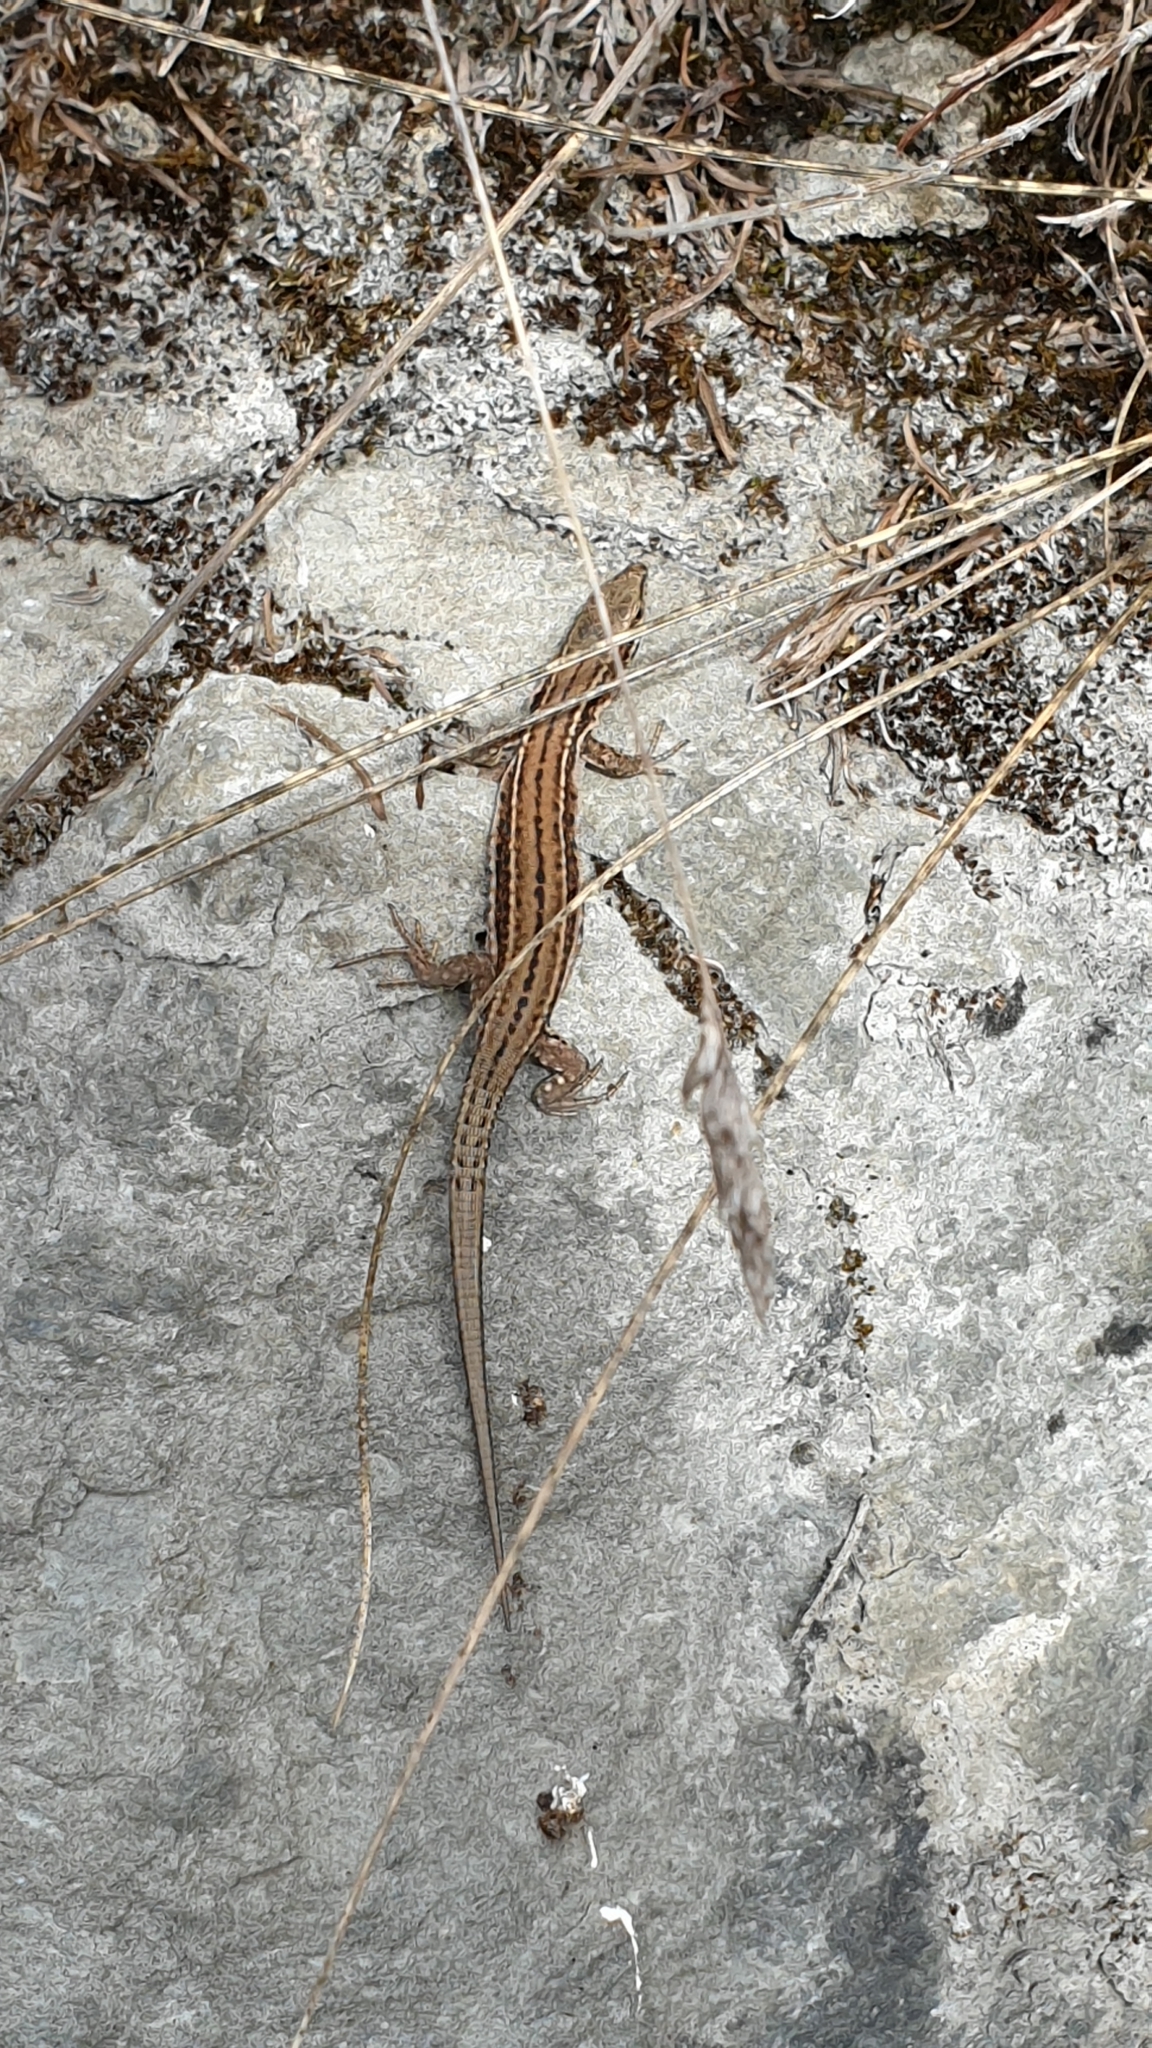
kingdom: Animalia
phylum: Chordata
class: Squamata
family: Lacertidae
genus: Podarcis
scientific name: Podarcis muralis
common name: Common wall lizard
